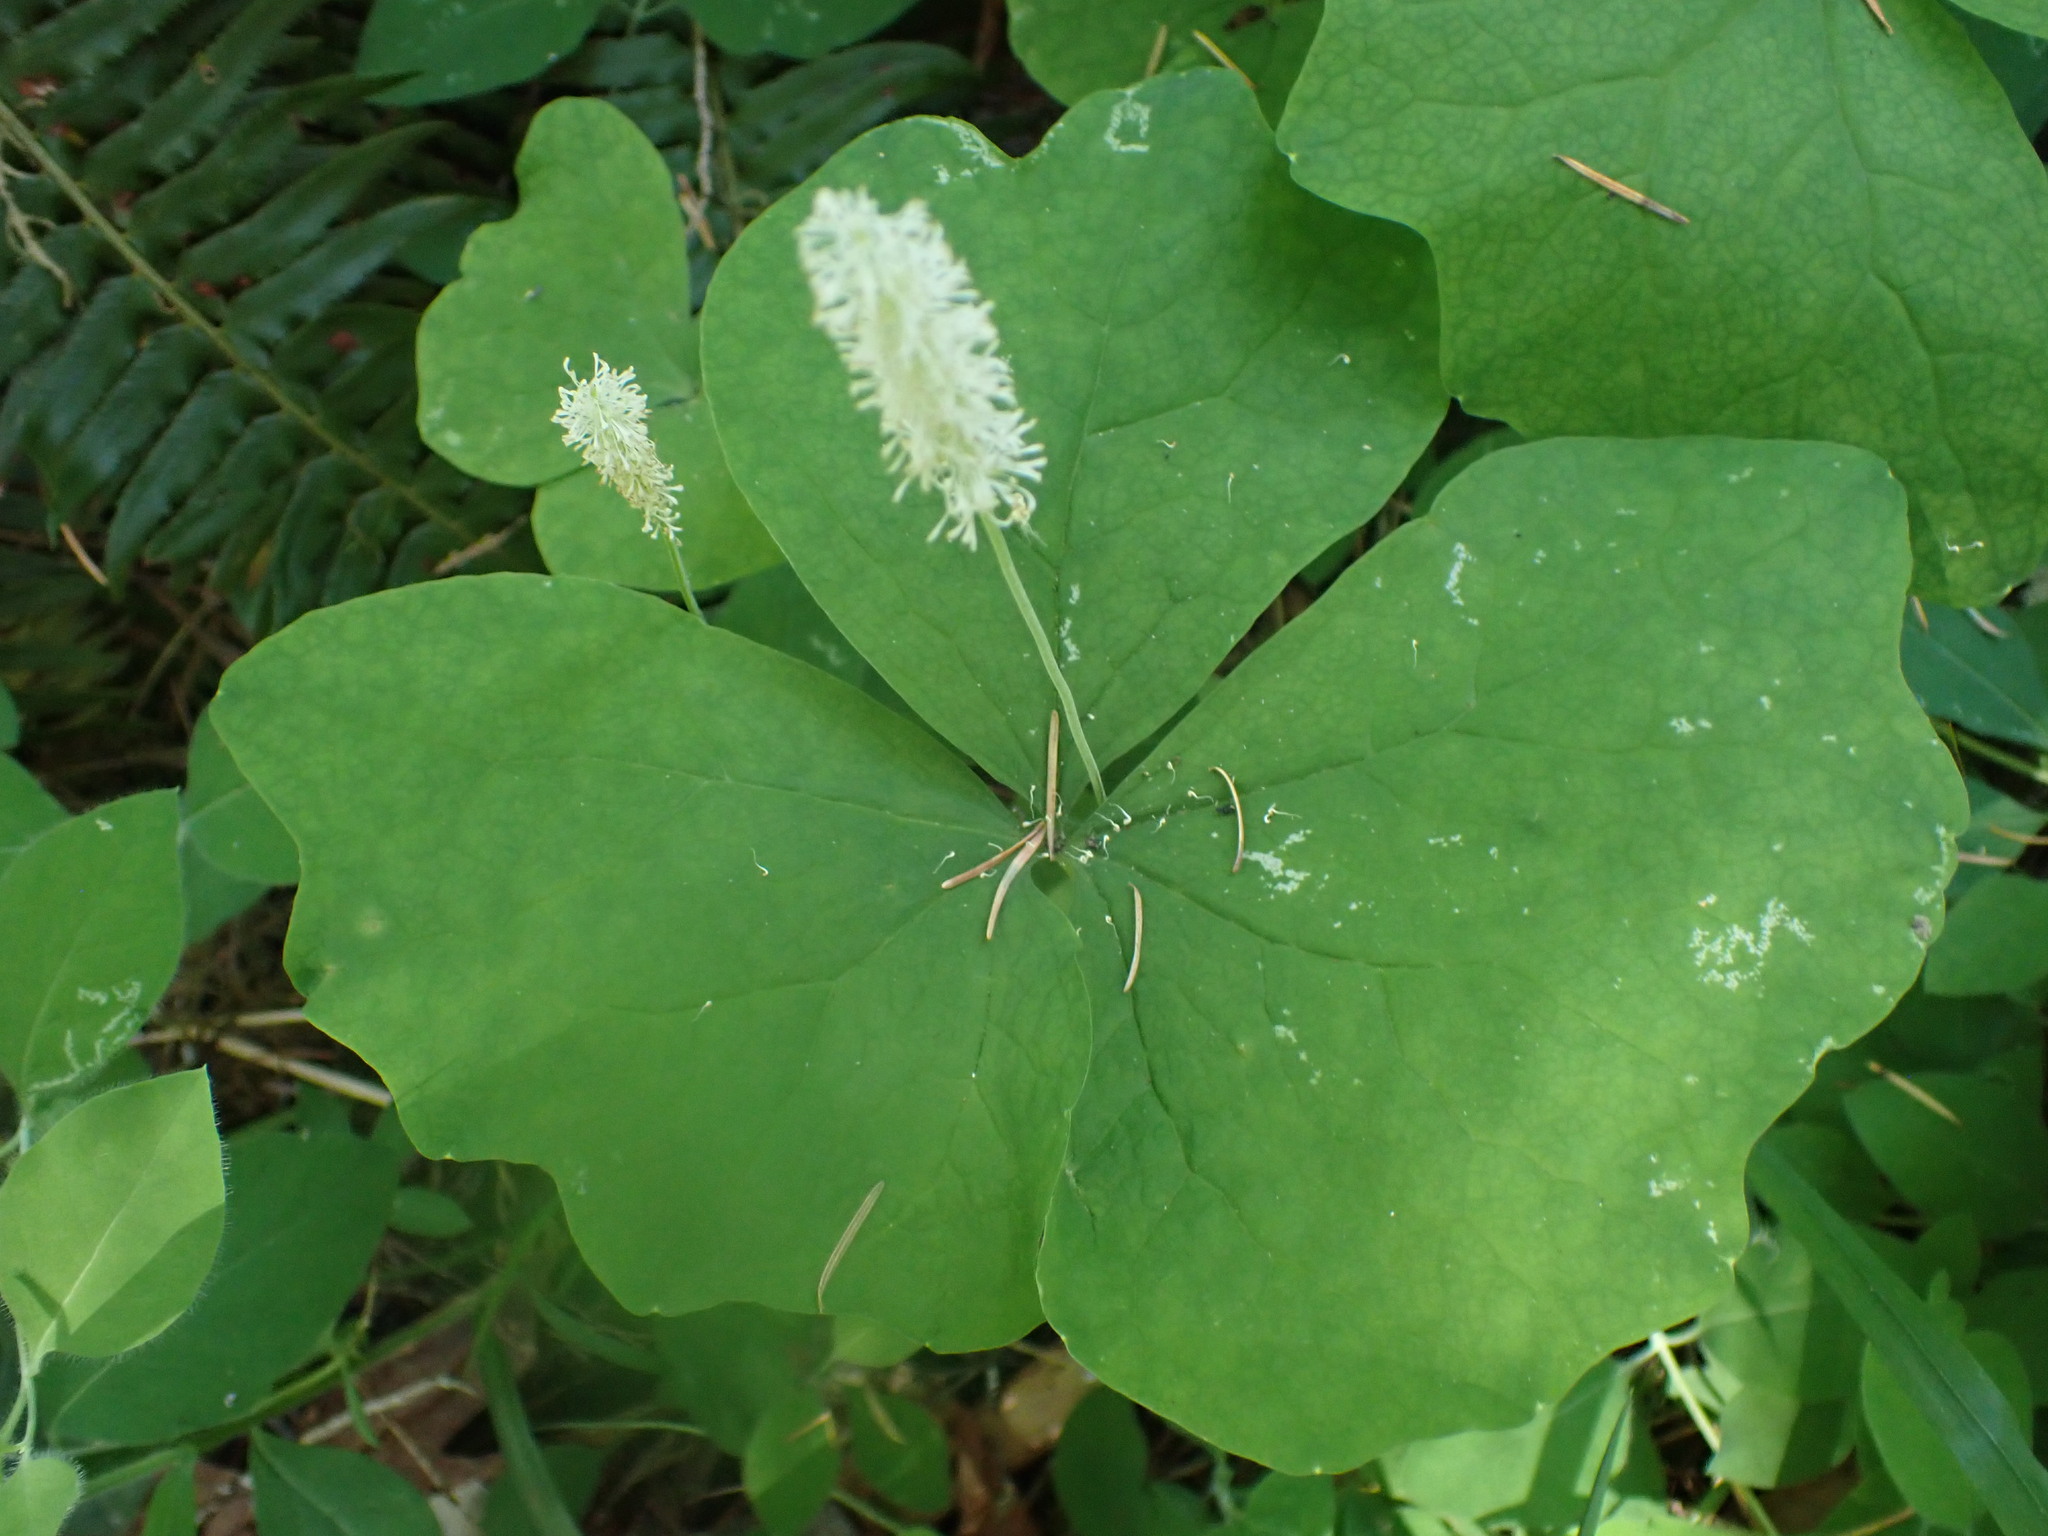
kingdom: Plantae
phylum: Tracheophyta
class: Magnoliopsida
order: Ranunculales
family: Berberidaceae
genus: Achlys
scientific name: Achlys triphylla
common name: Vanilla-leaf
